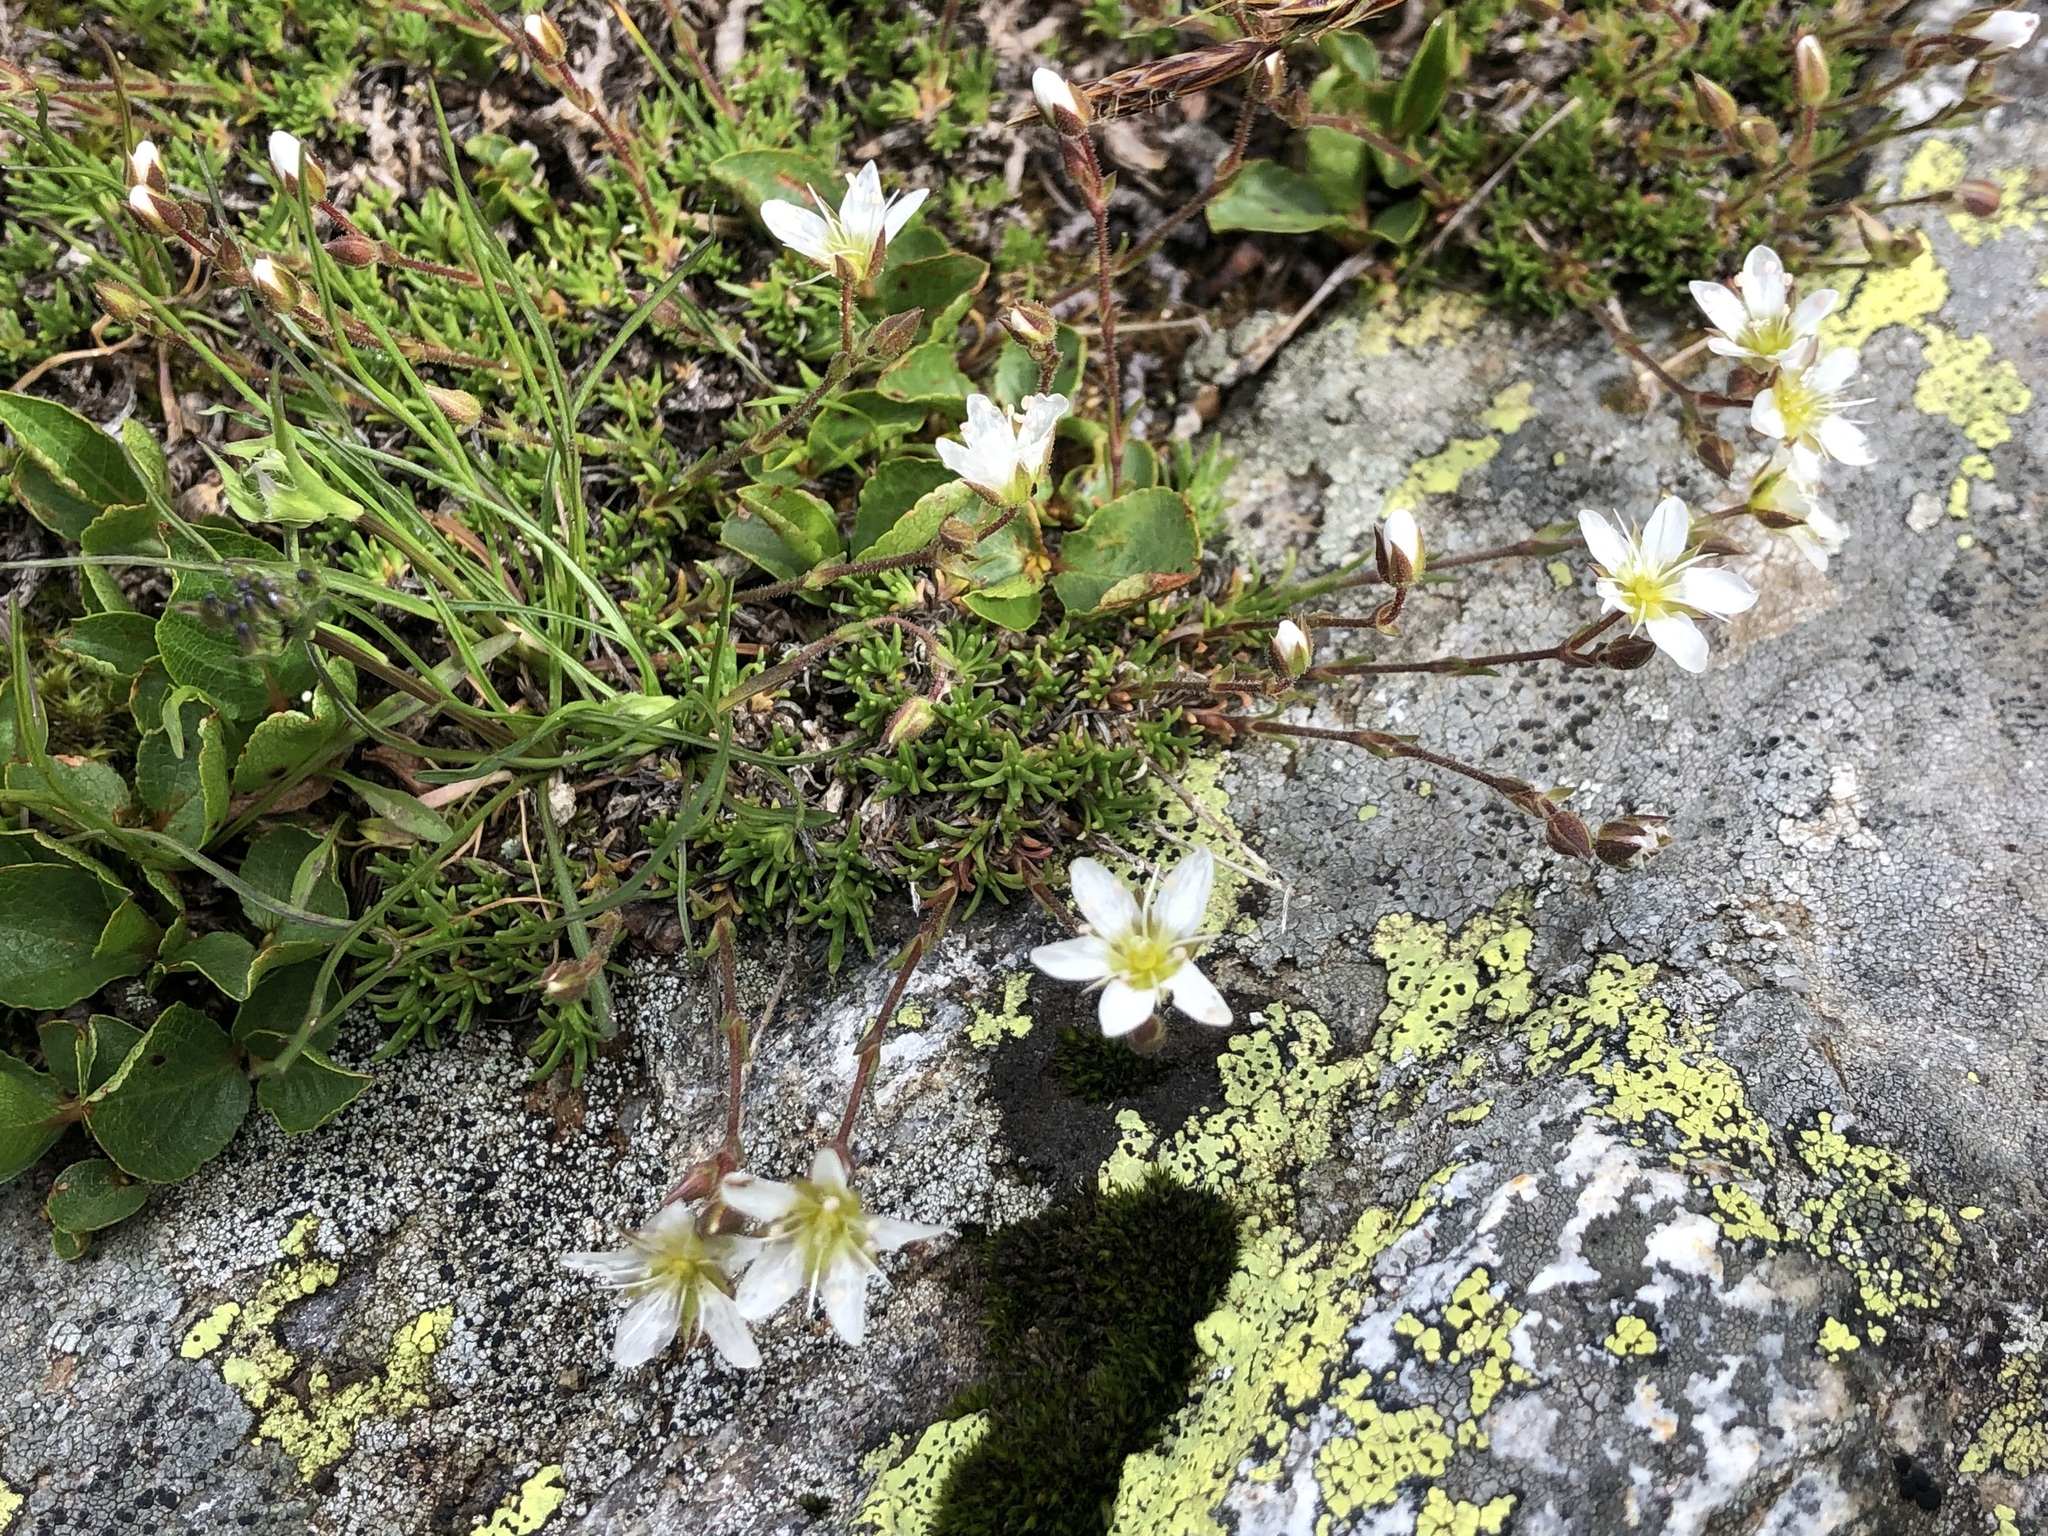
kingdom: Plantae
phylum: Tracheophyta
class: Magnoliopsida
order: Caryophyllales
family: Caryophyllaceae
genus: Sabulina
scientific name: Sabulina verna
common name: Spring sandwort
